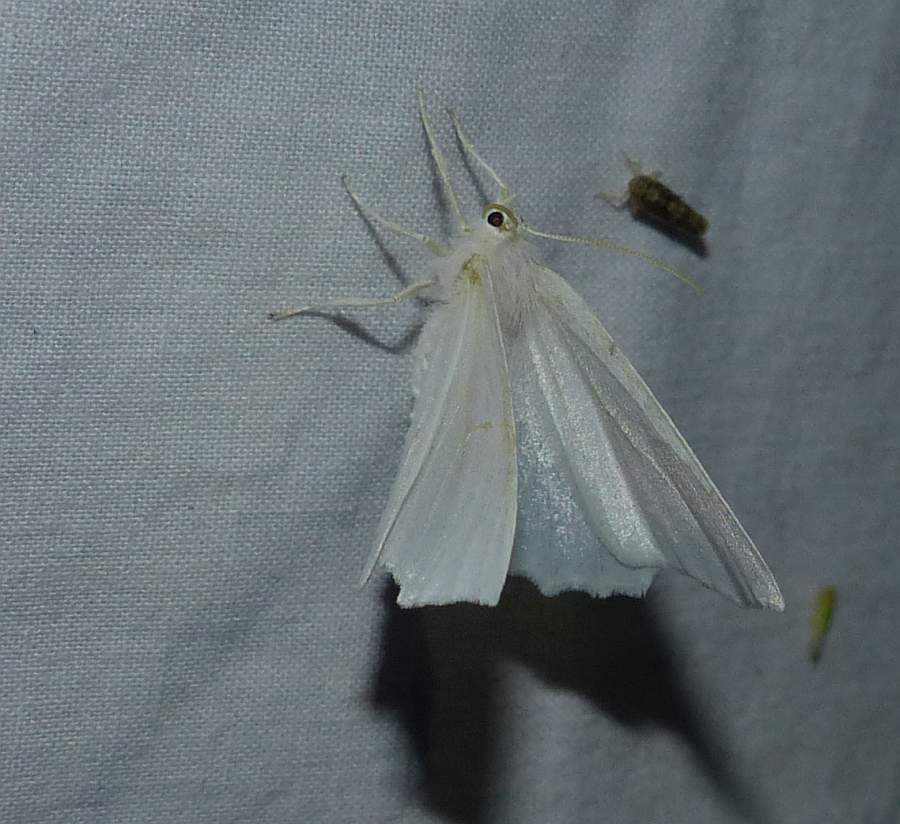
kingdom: Animalia
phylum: Arthropoda
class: Insecta
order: Lepidoptera
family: Geometridae
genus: Ennomos
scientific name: Ennomos subsignaria
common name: Elm spanworm
